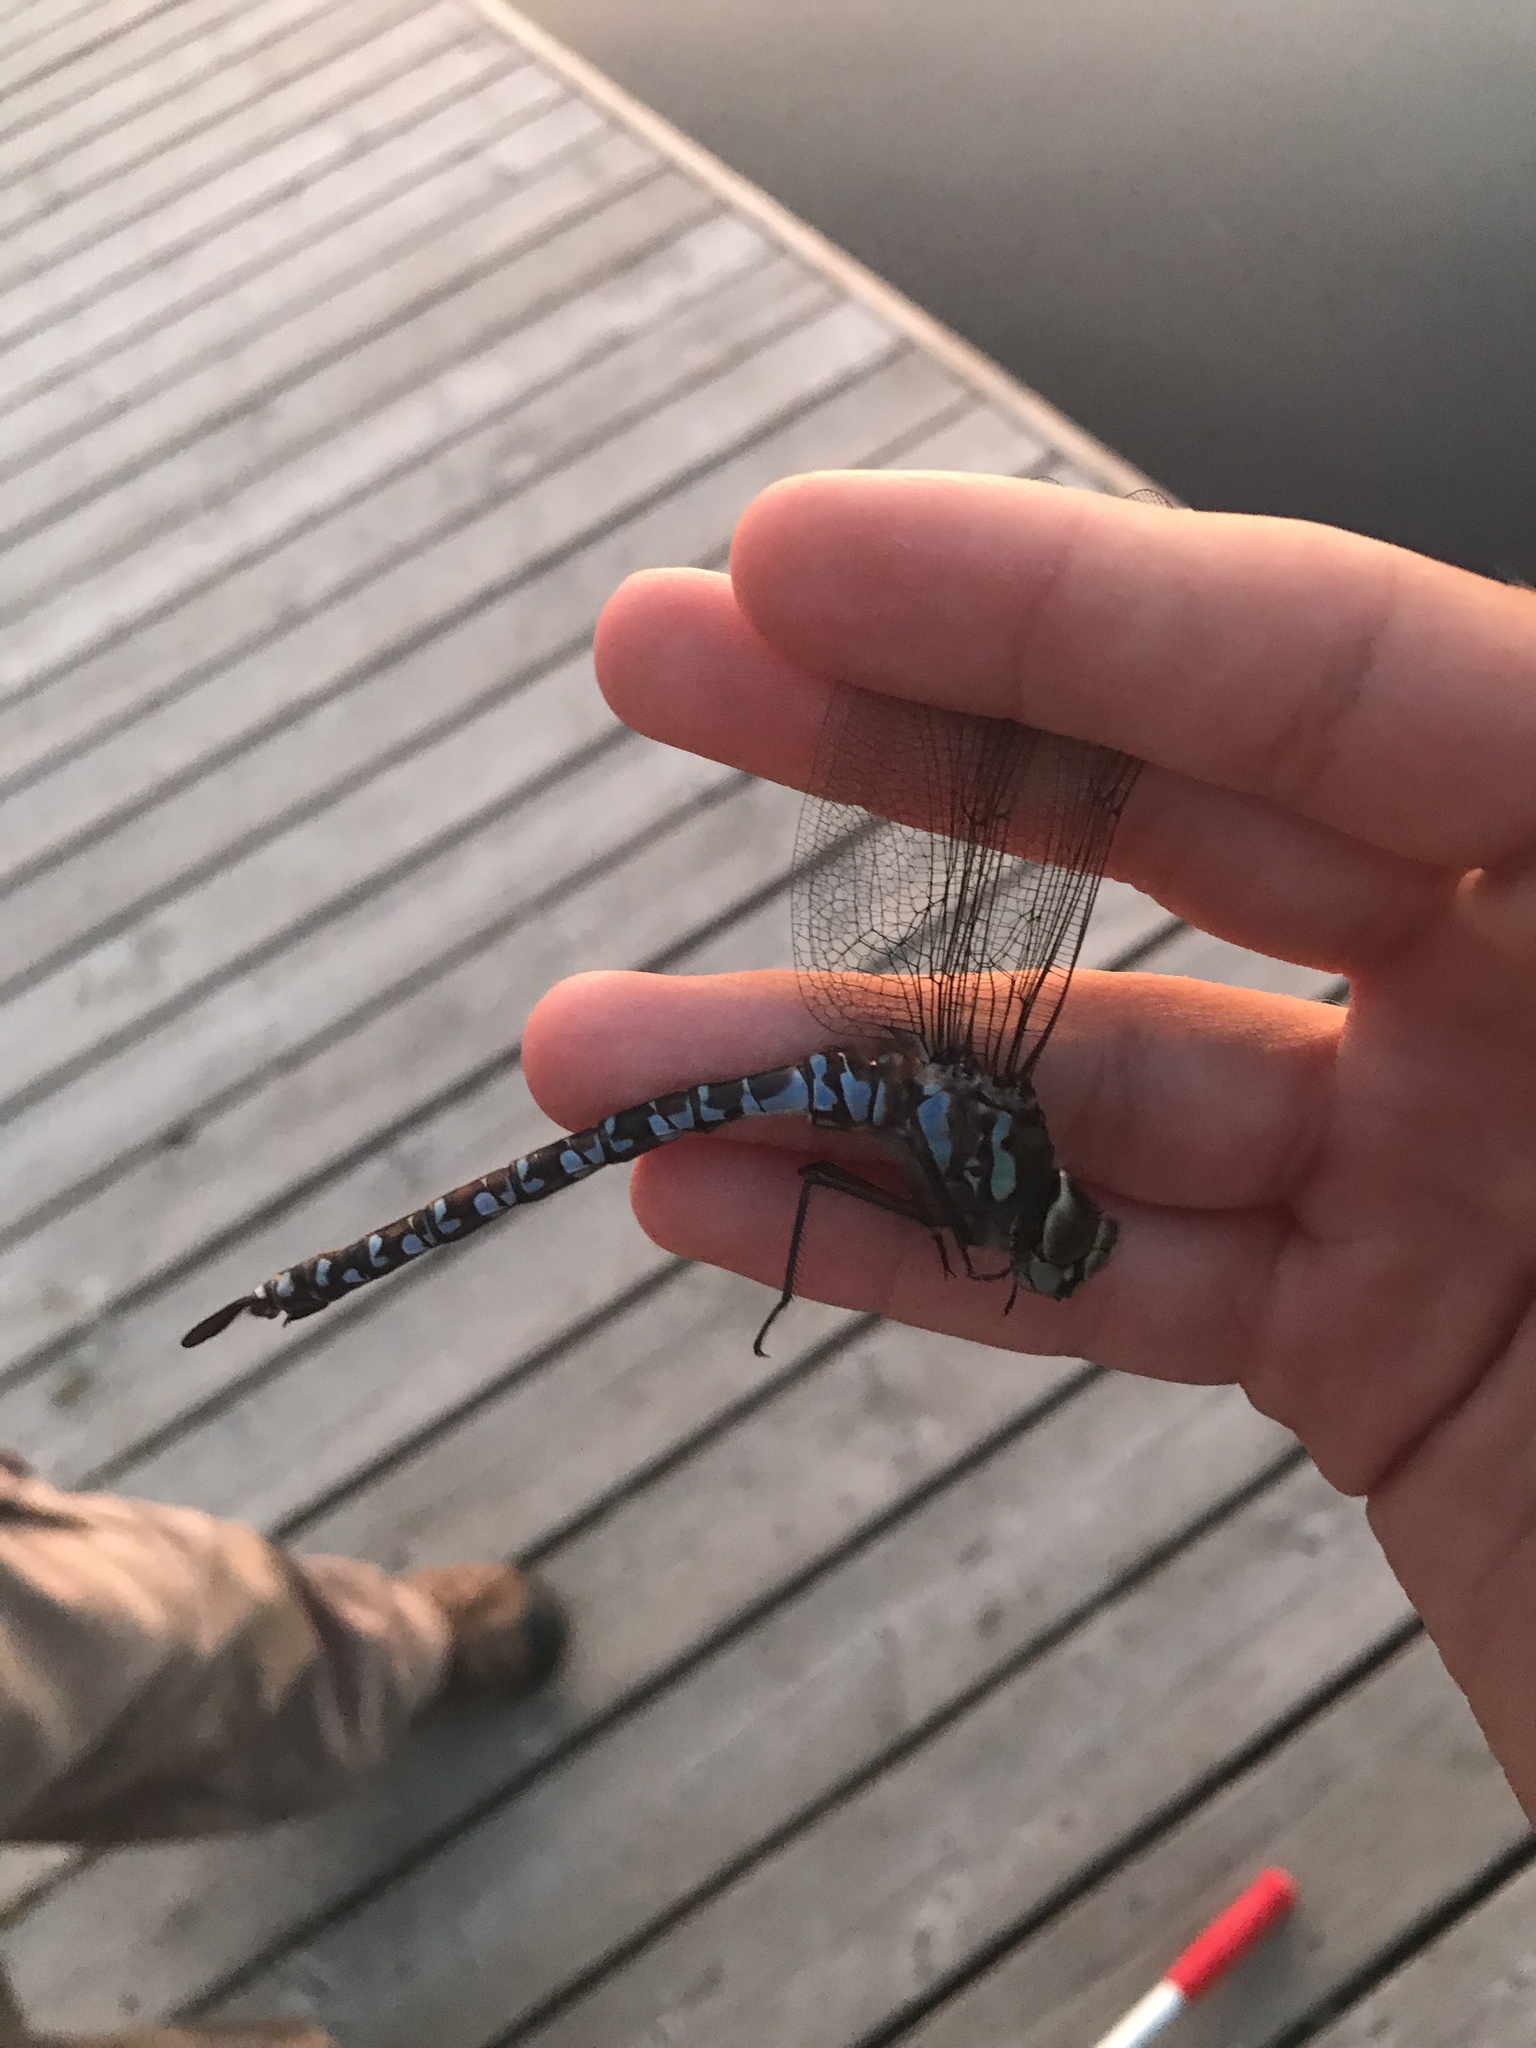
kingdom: Animalia
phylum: Arthropoda
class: Insecta
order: Odonata
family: Aeshnidae
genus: Aeshna
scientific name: Aeshna eremita
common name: Lake darner
